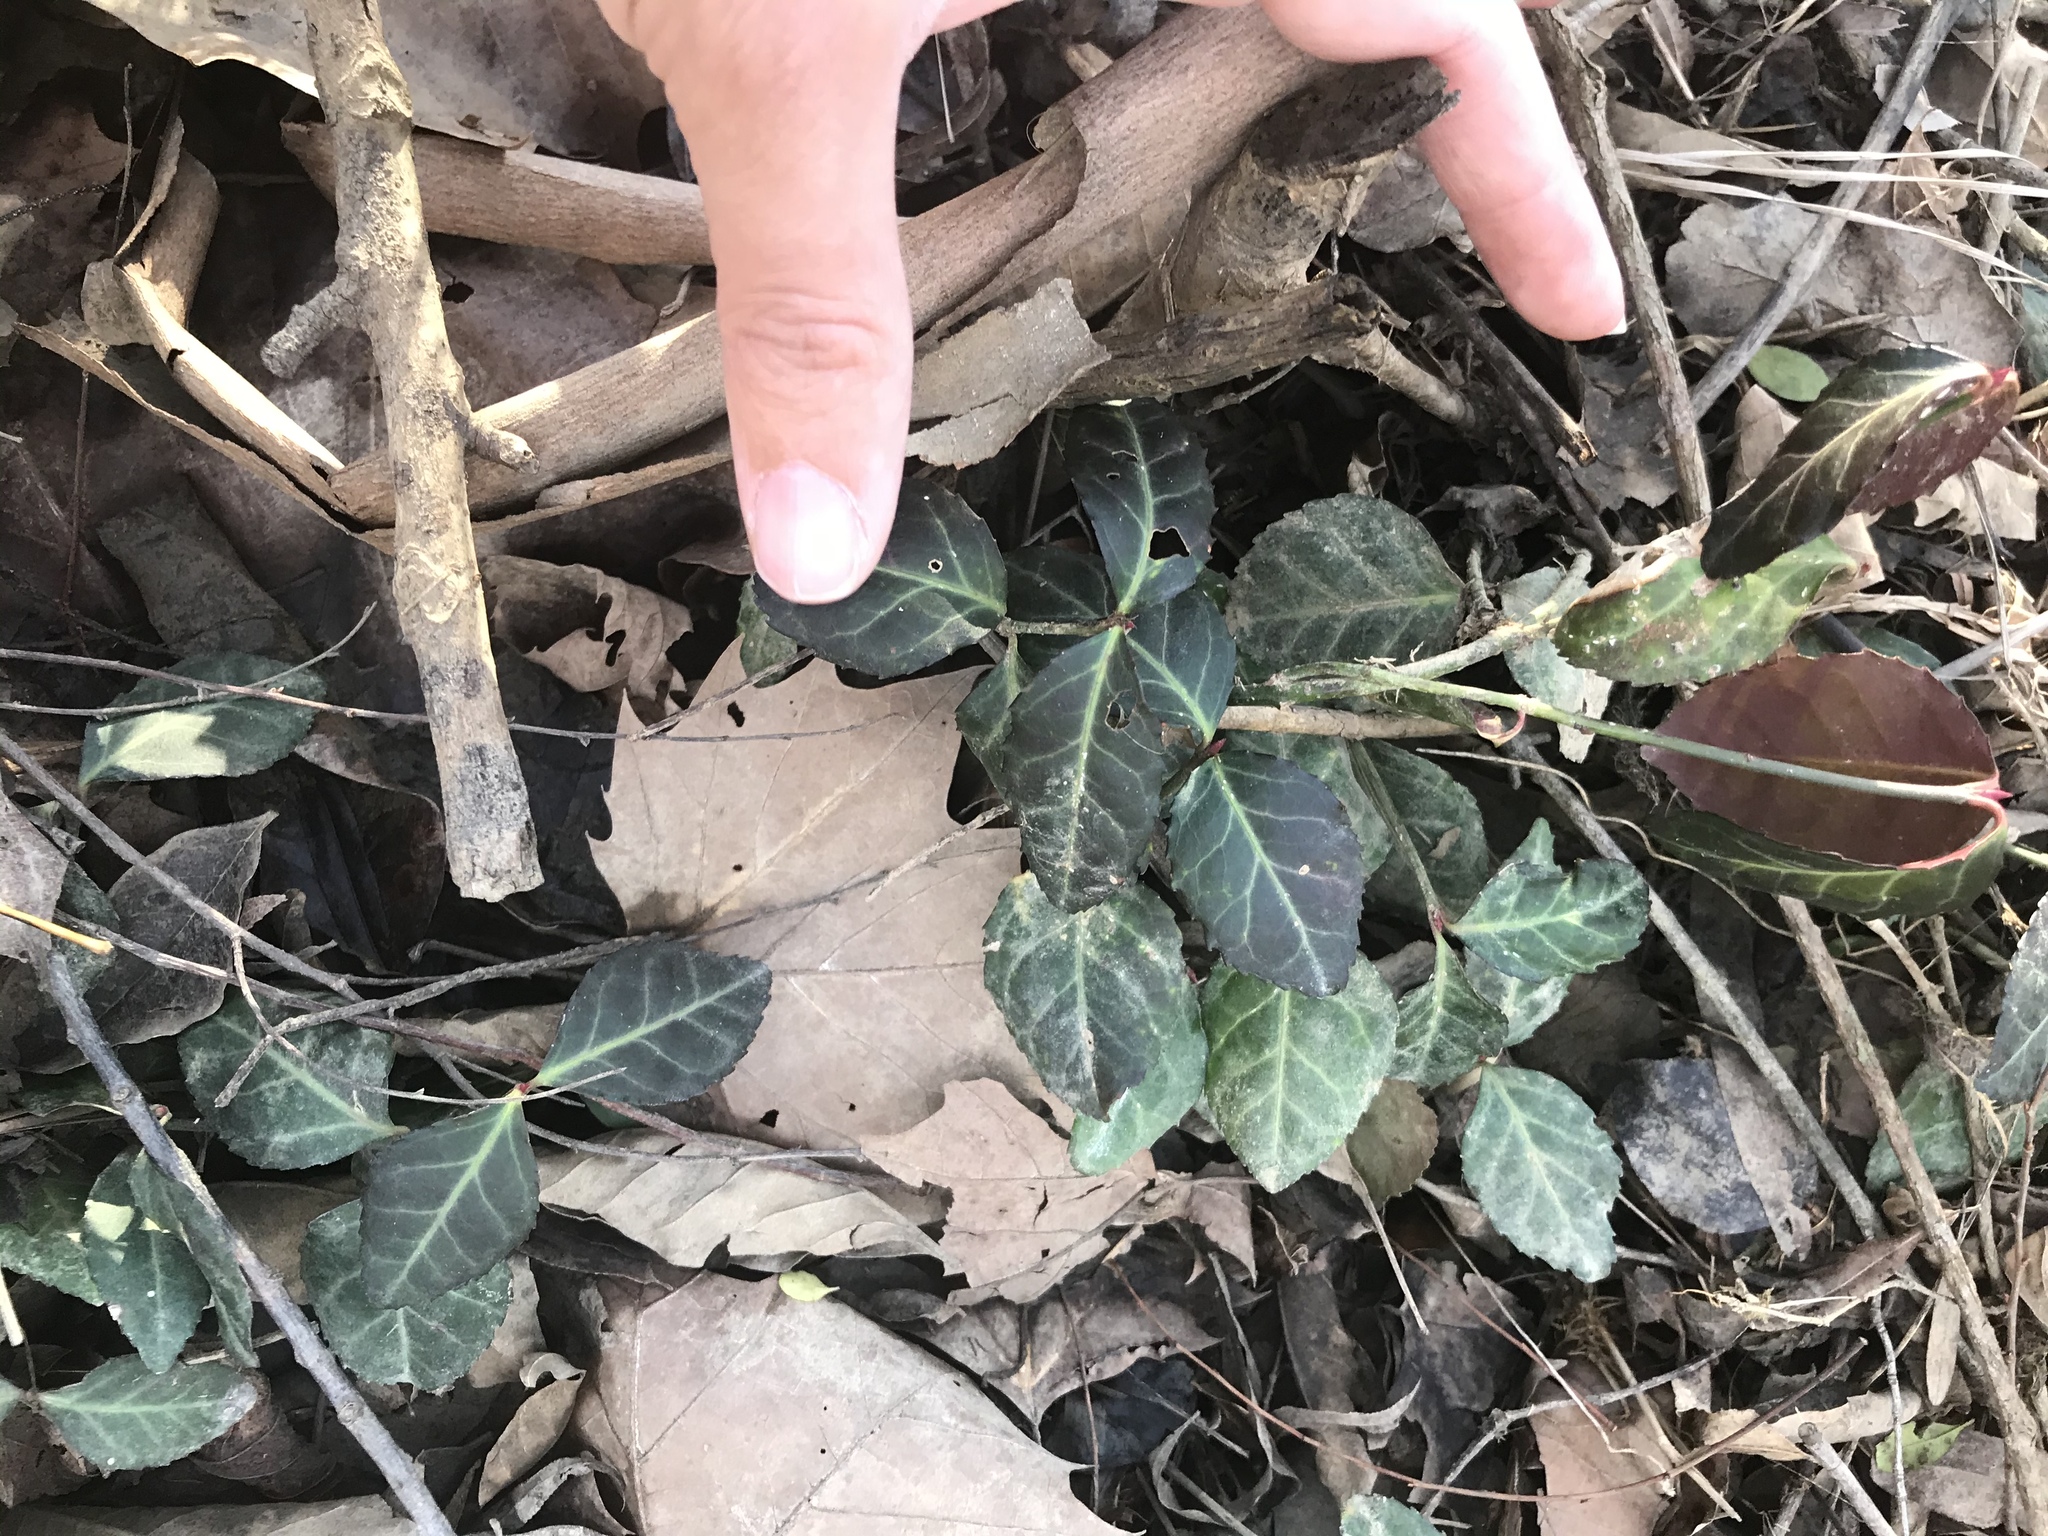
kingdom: Plantae
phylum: Tracheophyta
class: Magnoliopsida
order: Celastrales
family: Celastraceae
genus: Euonymus
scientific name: Euonymus fortunei
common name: Climbing euonymus
